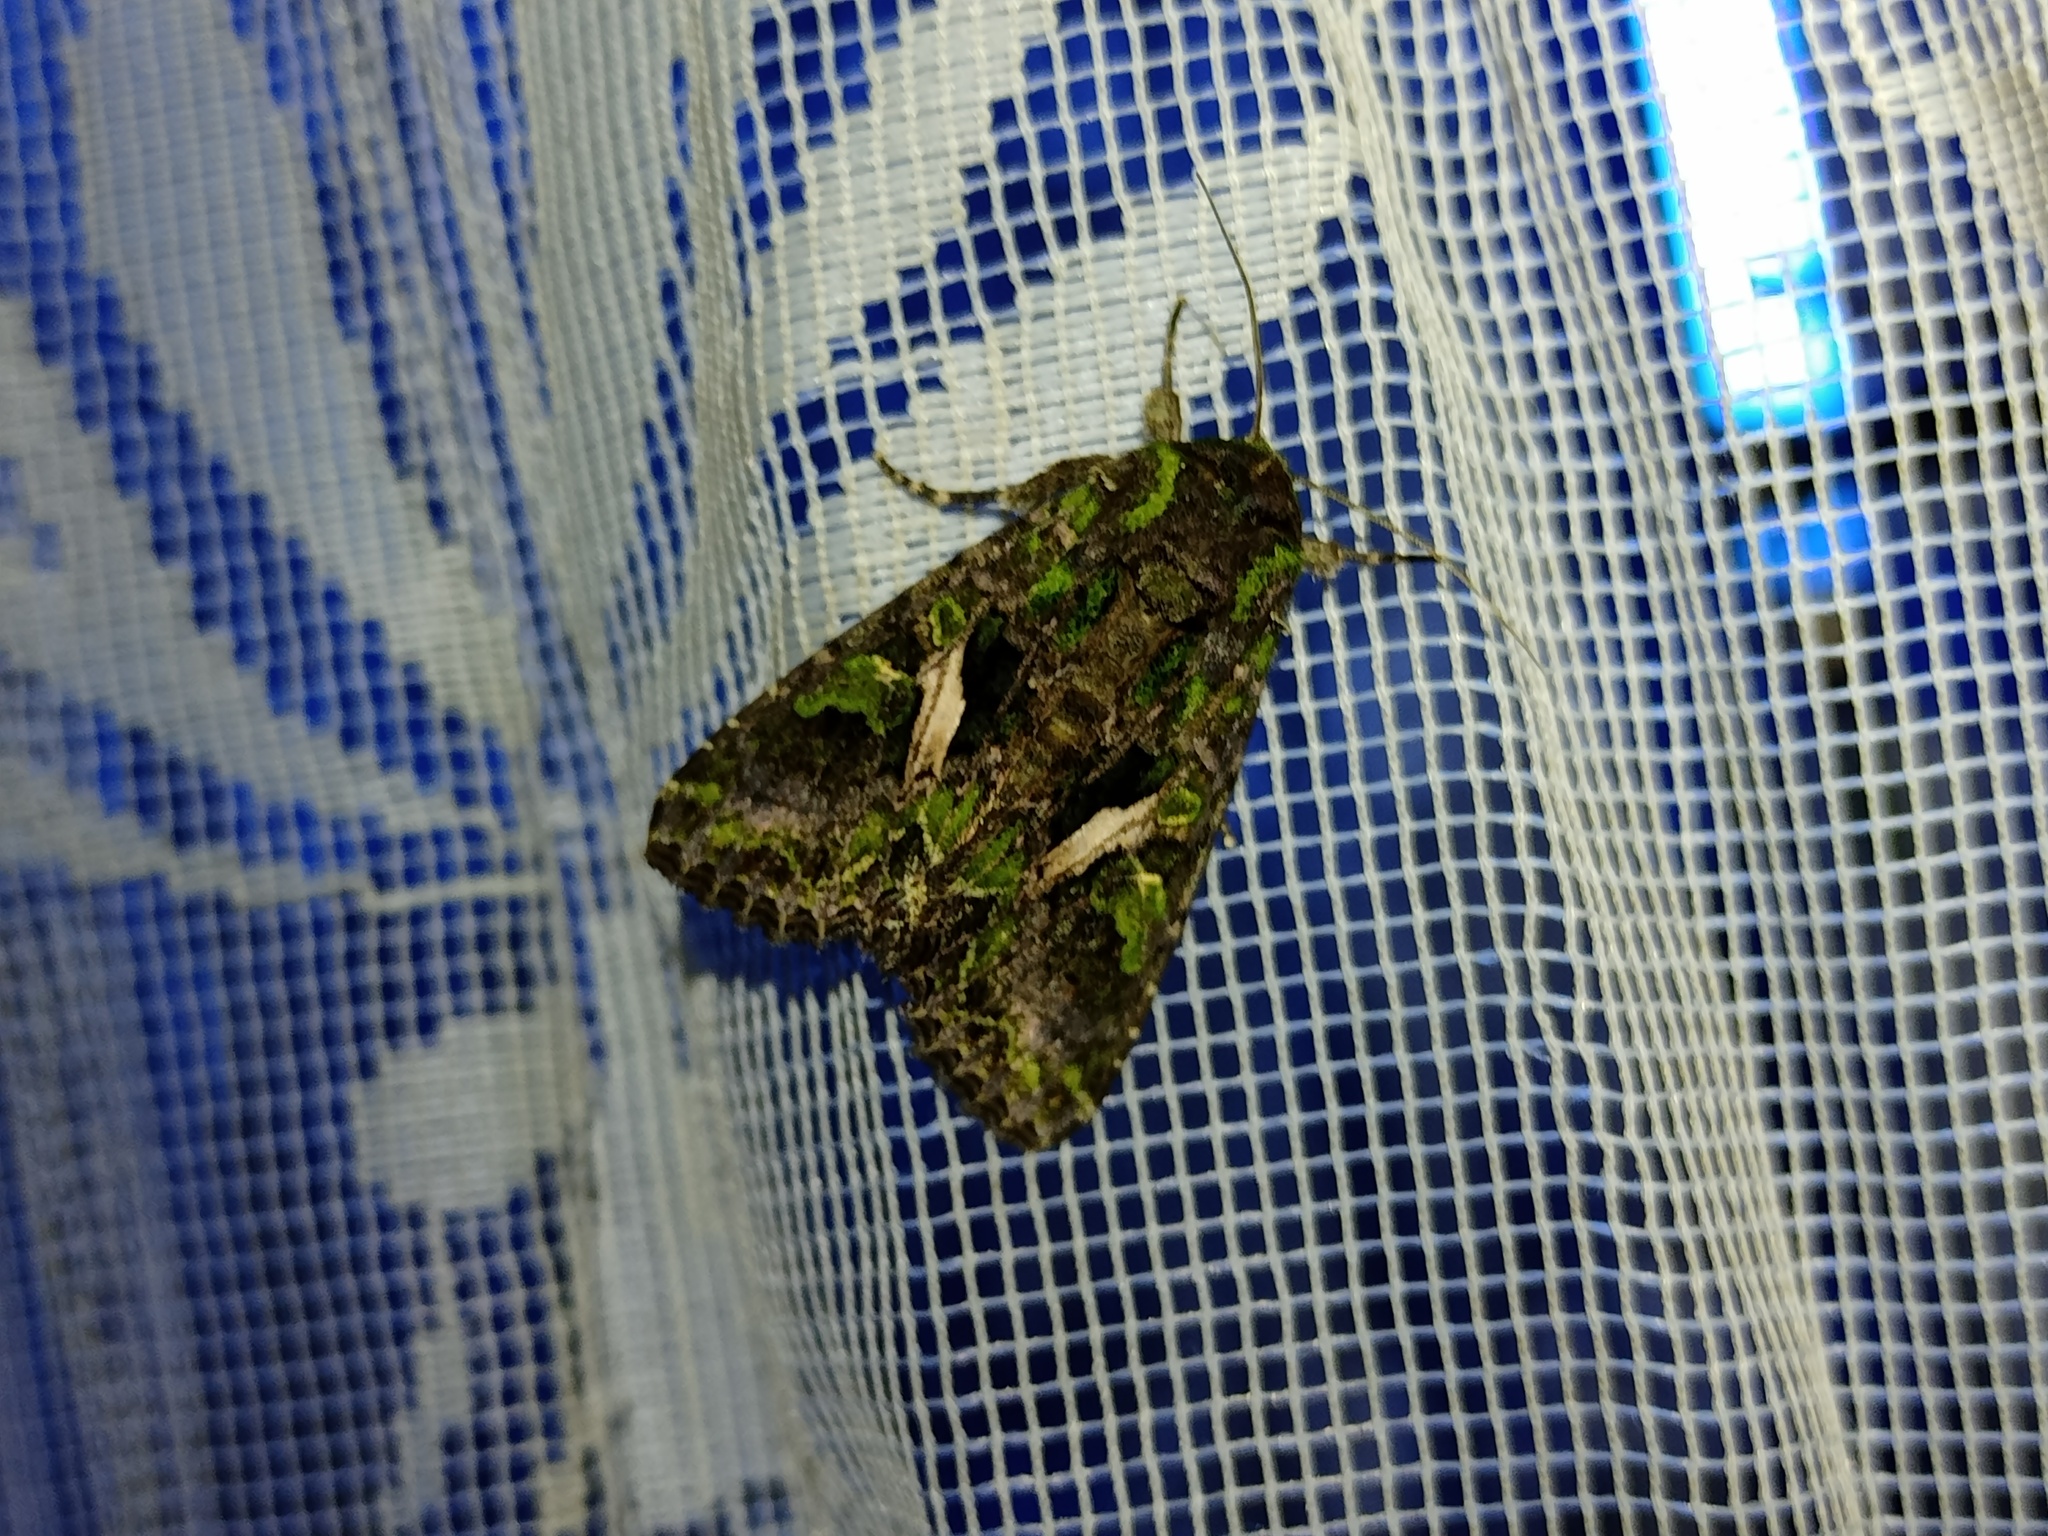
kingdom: Animalia
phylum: Arthropoda
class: Insecta
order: Lepidoptera
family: Noctuidae
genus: Trachea
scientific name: Trachea atriplicis
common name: Orache moth
